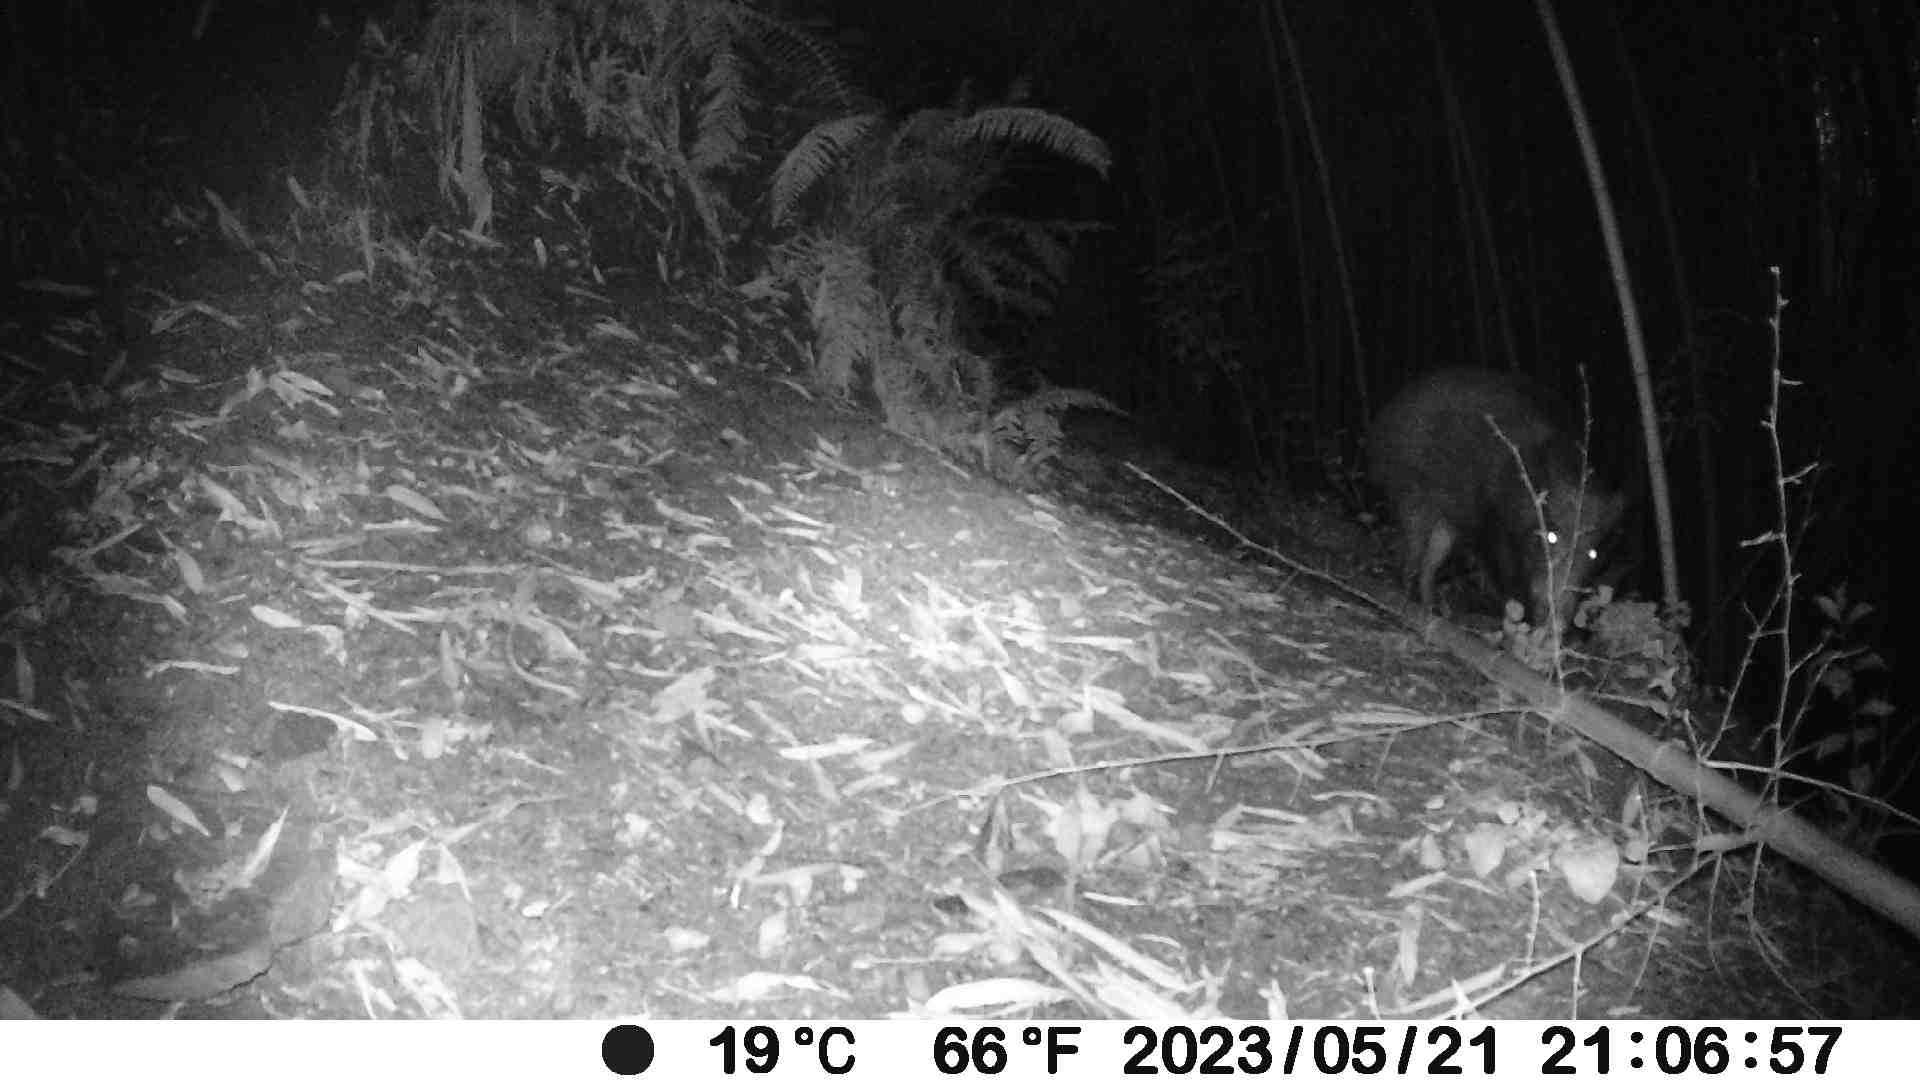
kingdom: Animalia
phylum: Chordata
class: Mammalia
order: Artiodactyla
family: Suidae
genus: Sus
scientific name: Sus scrofa
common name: Wild boar
